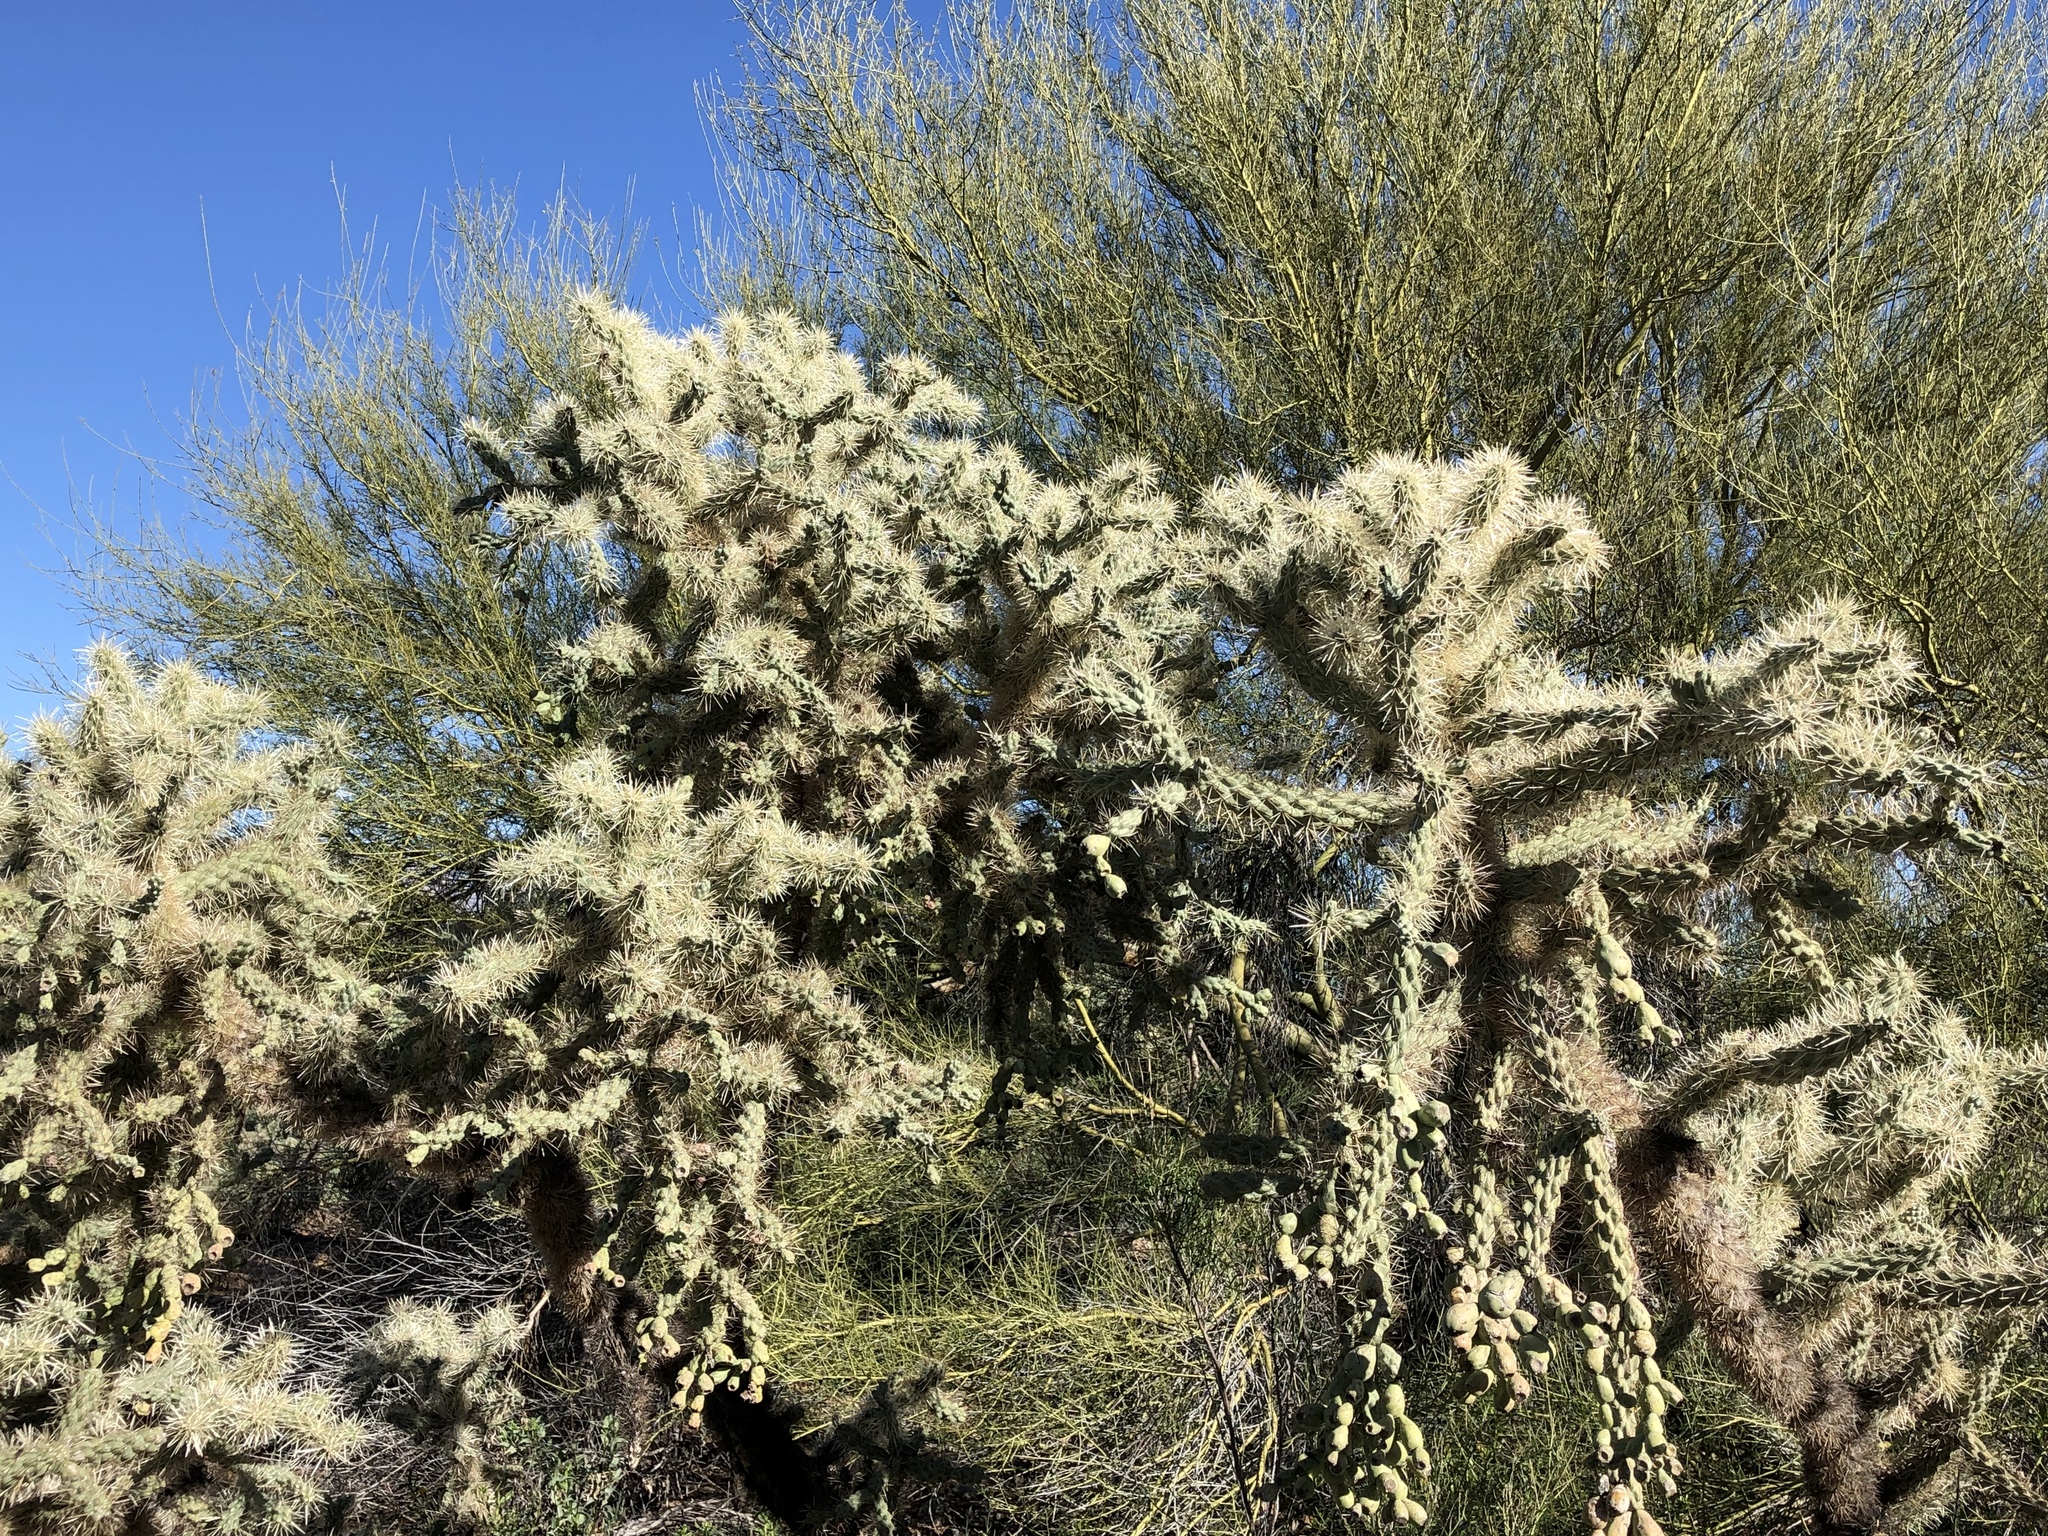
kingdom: Plantae
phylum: Tracheophyta
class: Magnoliopsida
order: Caryophyllales
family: Cactaceae
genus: Cylindropuntia
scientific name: Cylindropuntia fulgida
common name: Jumping cholla
